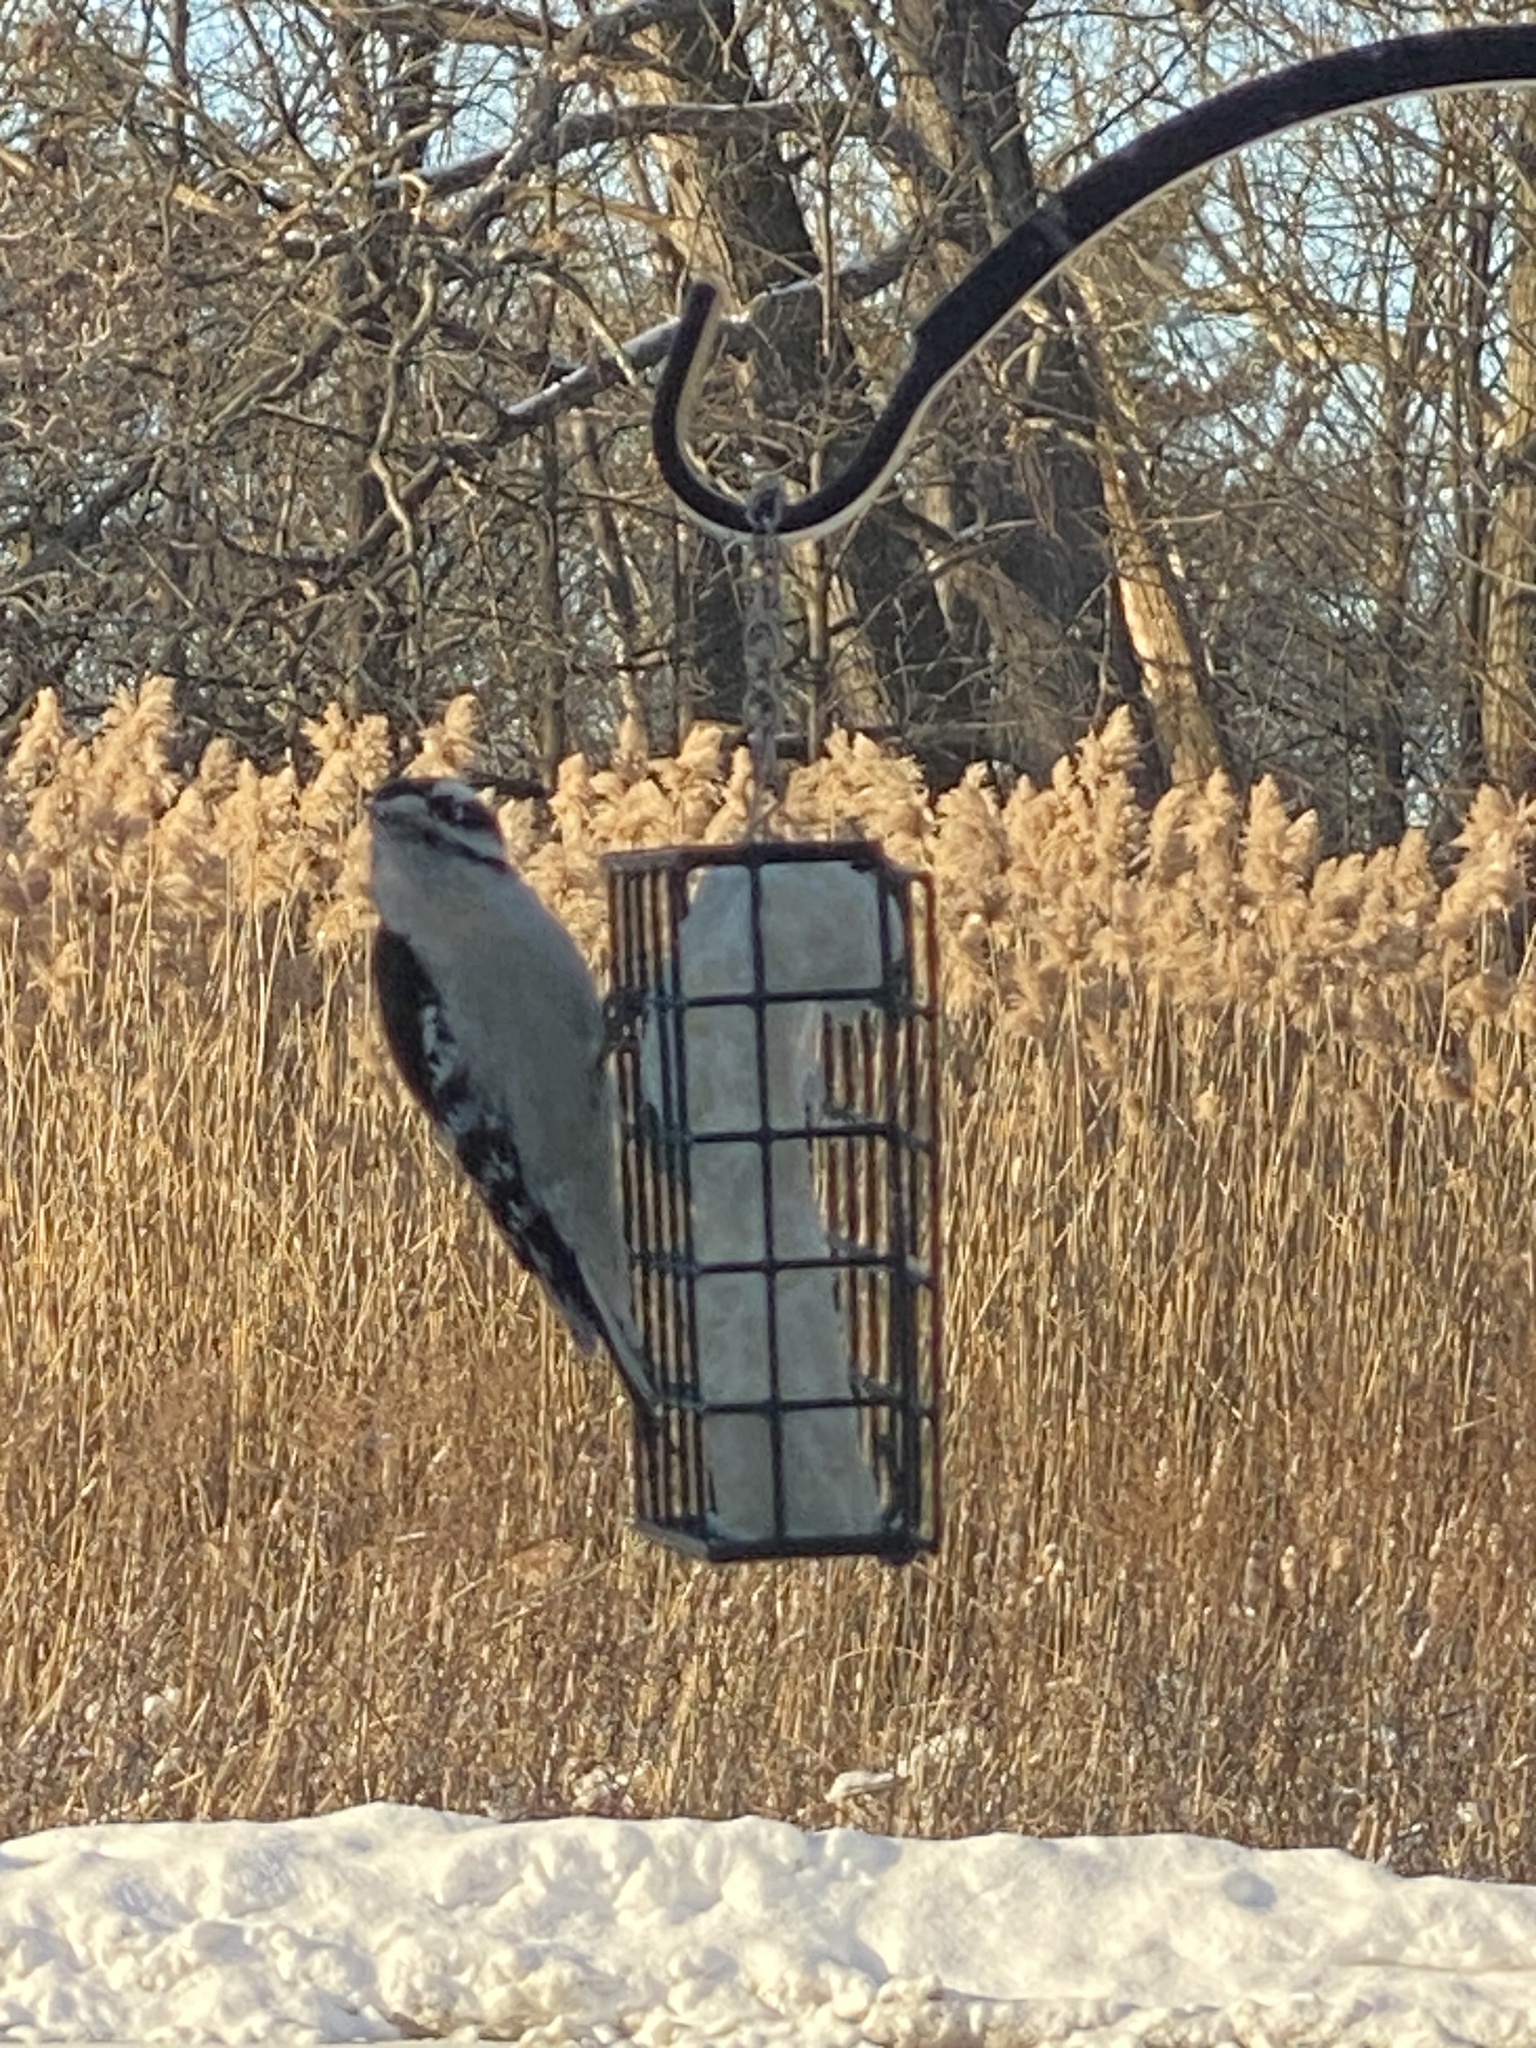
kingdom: Animalia
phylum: Chordata
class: Aves
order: Piciformes
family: Picidae
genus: Dryobates
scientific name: Dryobates pubescens
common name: Downy woodpecker
